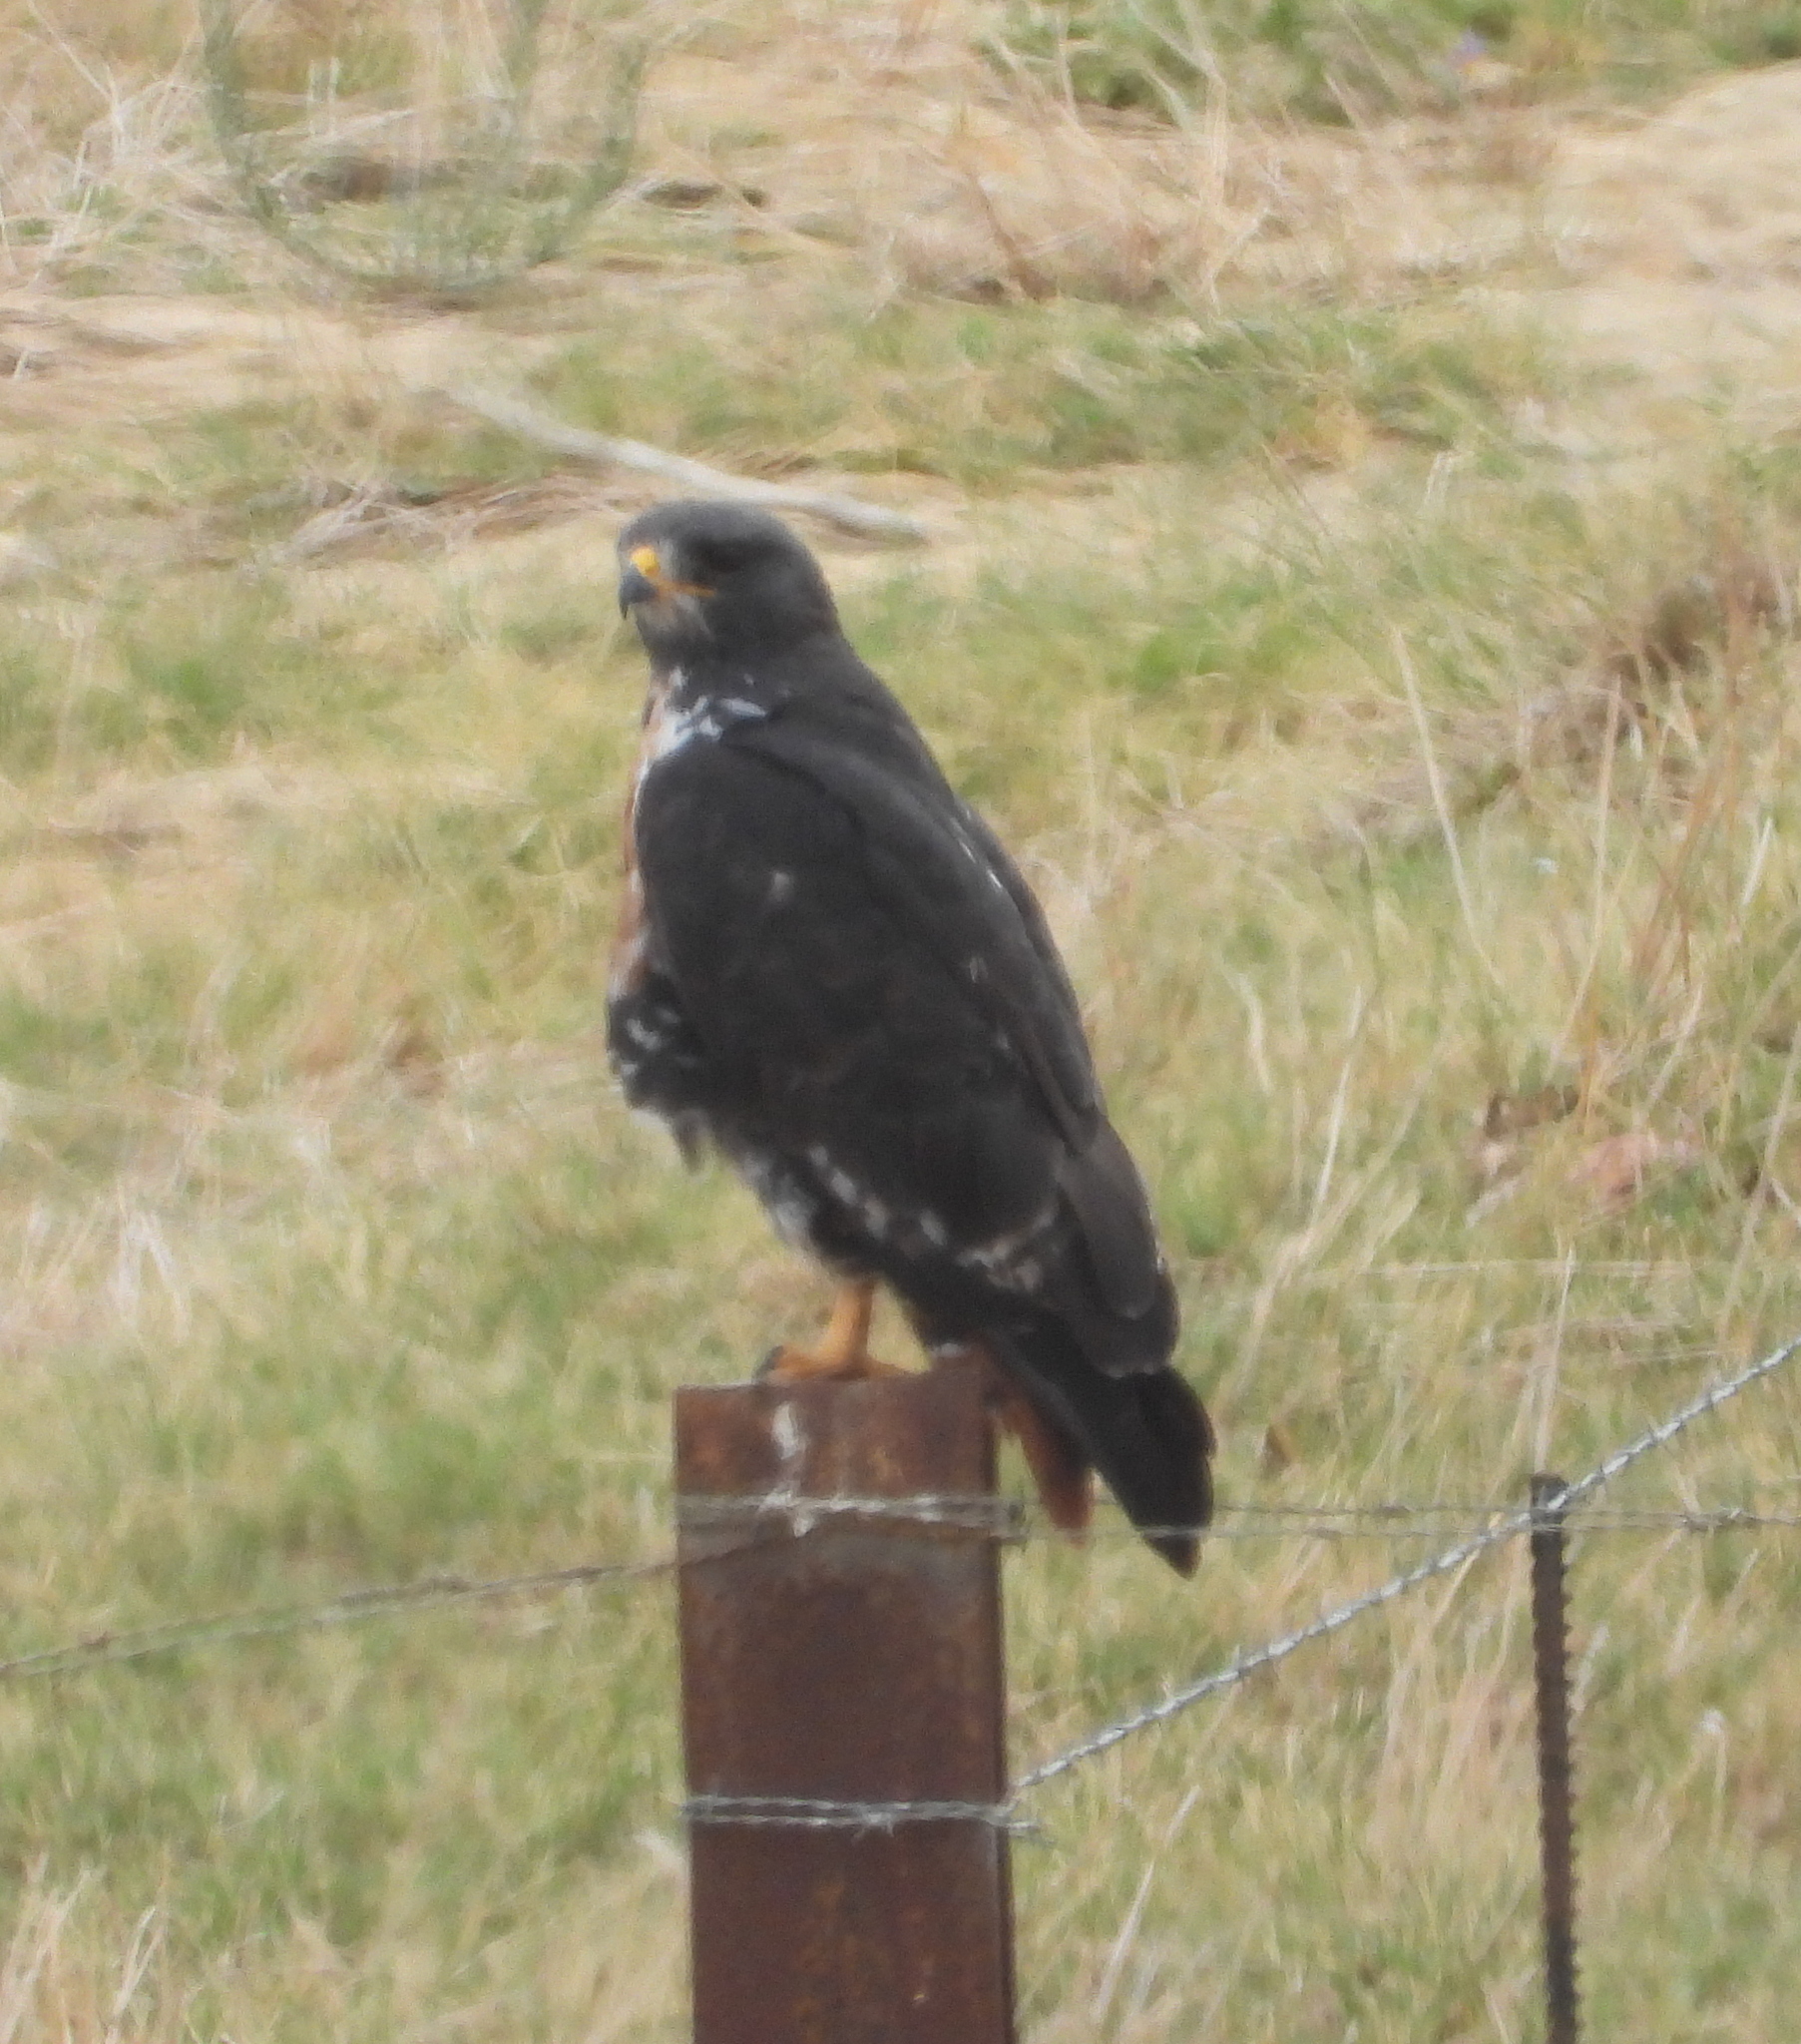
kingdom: Animalia
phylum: Chordata
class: Aves
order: Accipitriformes
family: Accipitridae
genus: Buteo
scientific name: Buteo rufofuscus
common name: Jackal buzzard
